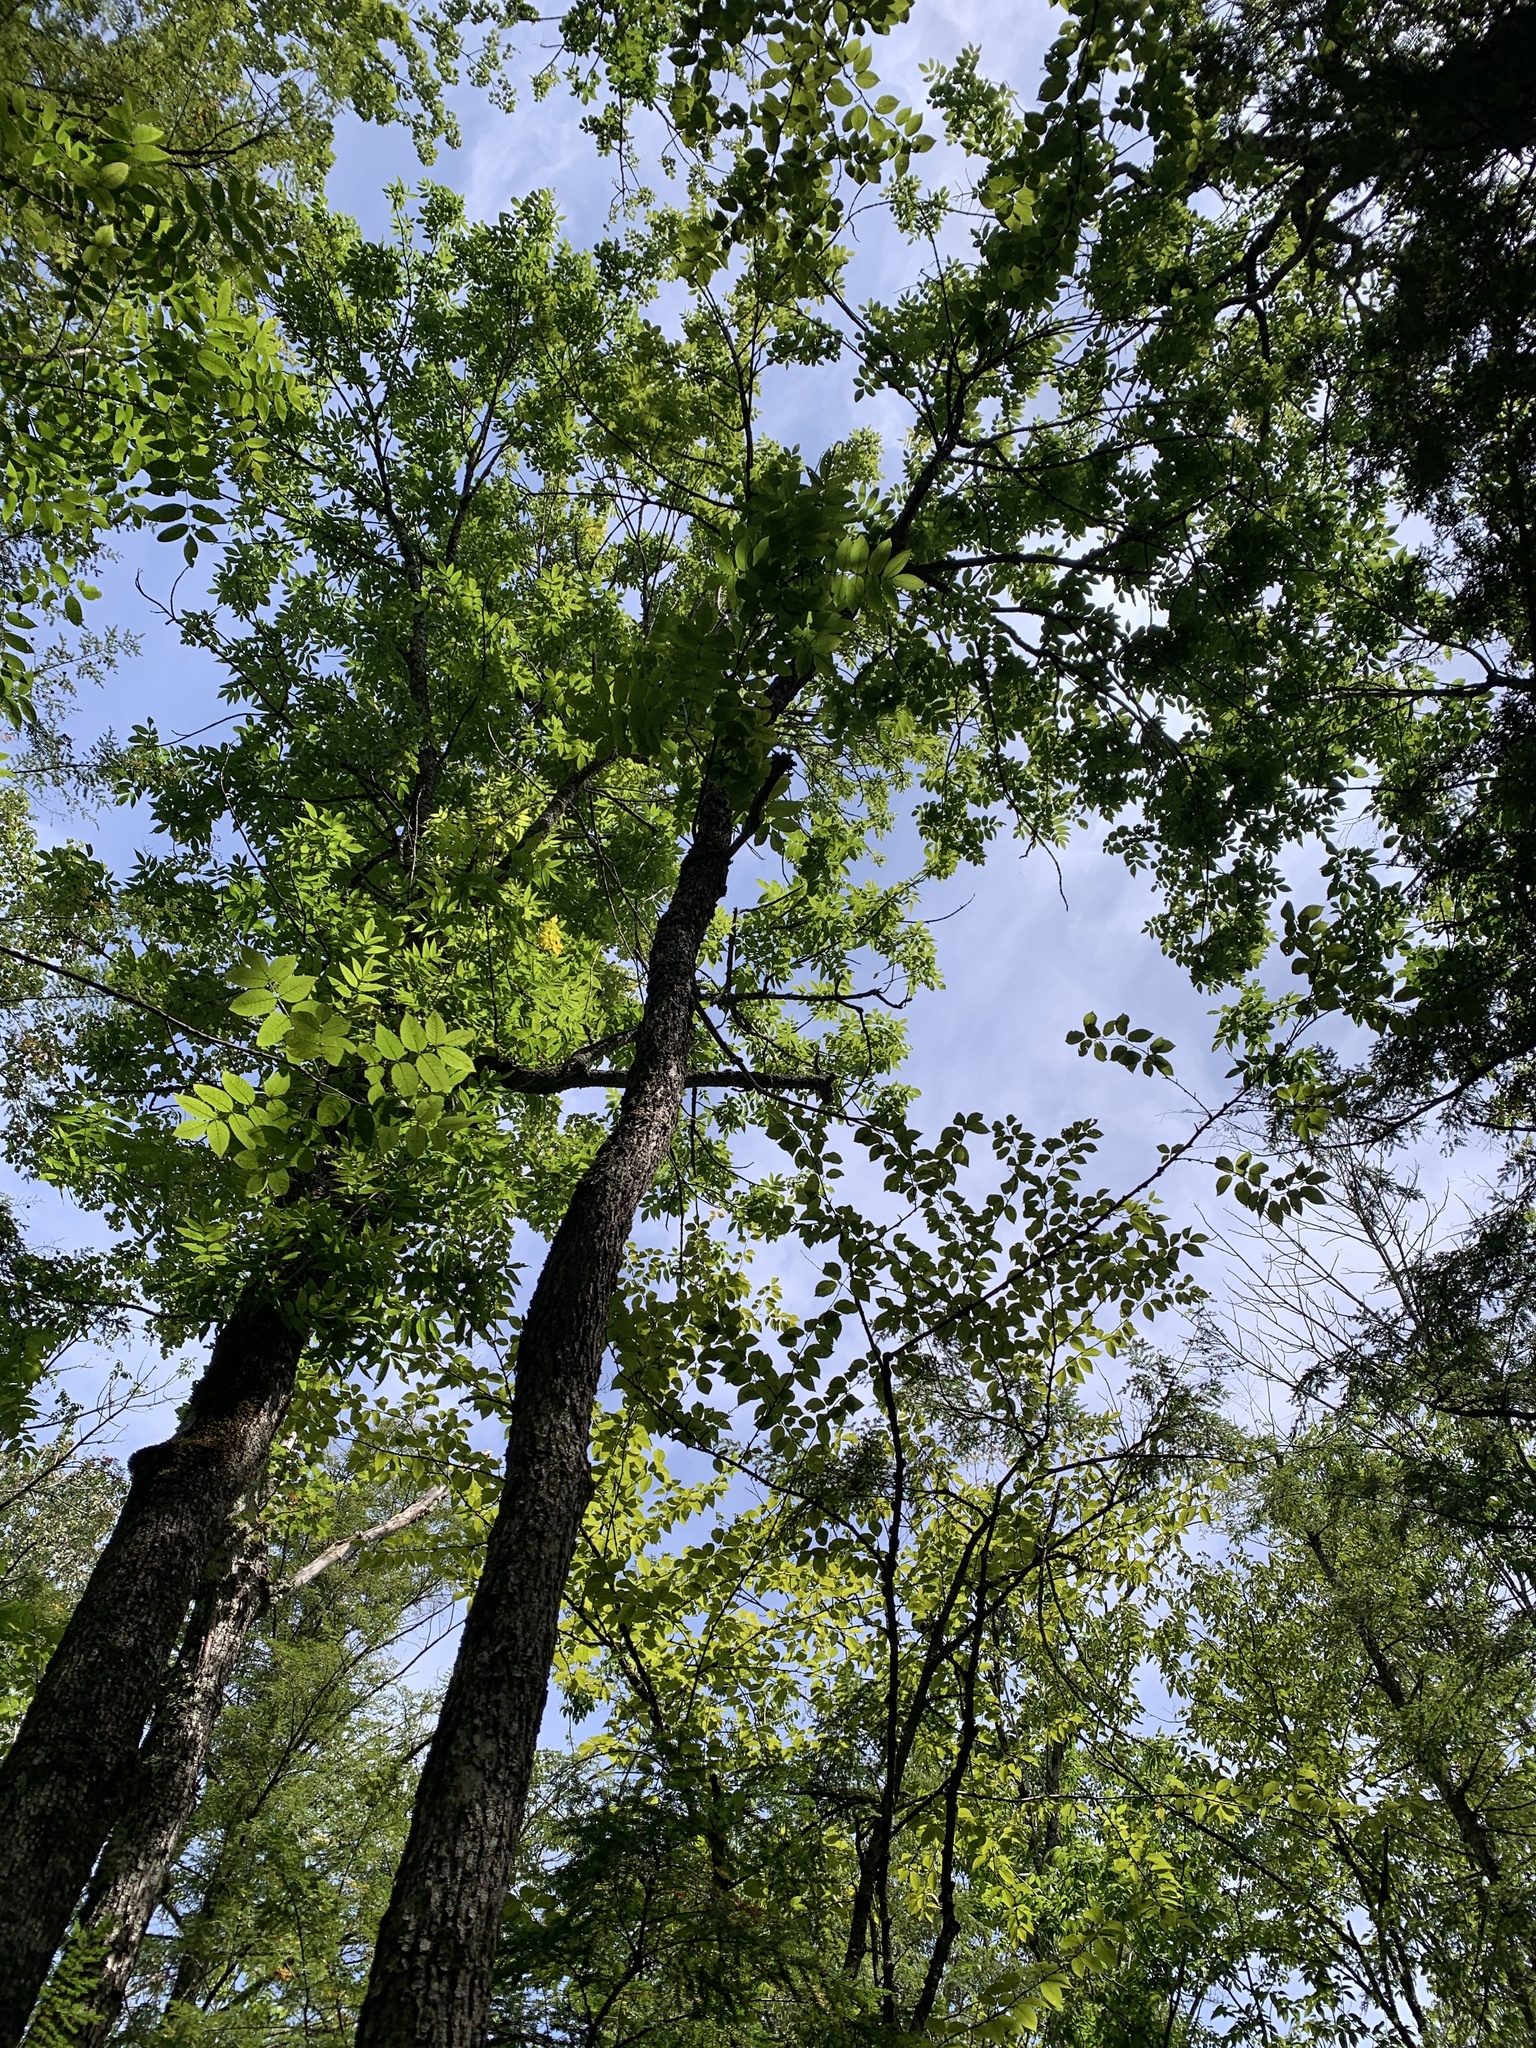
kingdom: Plantae
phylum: Tracheophyta
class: Magnoliopsida
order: Lamiales
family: Oleaceae
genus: Fraxinus
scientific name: Fraxinus nigra
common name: Black ash
